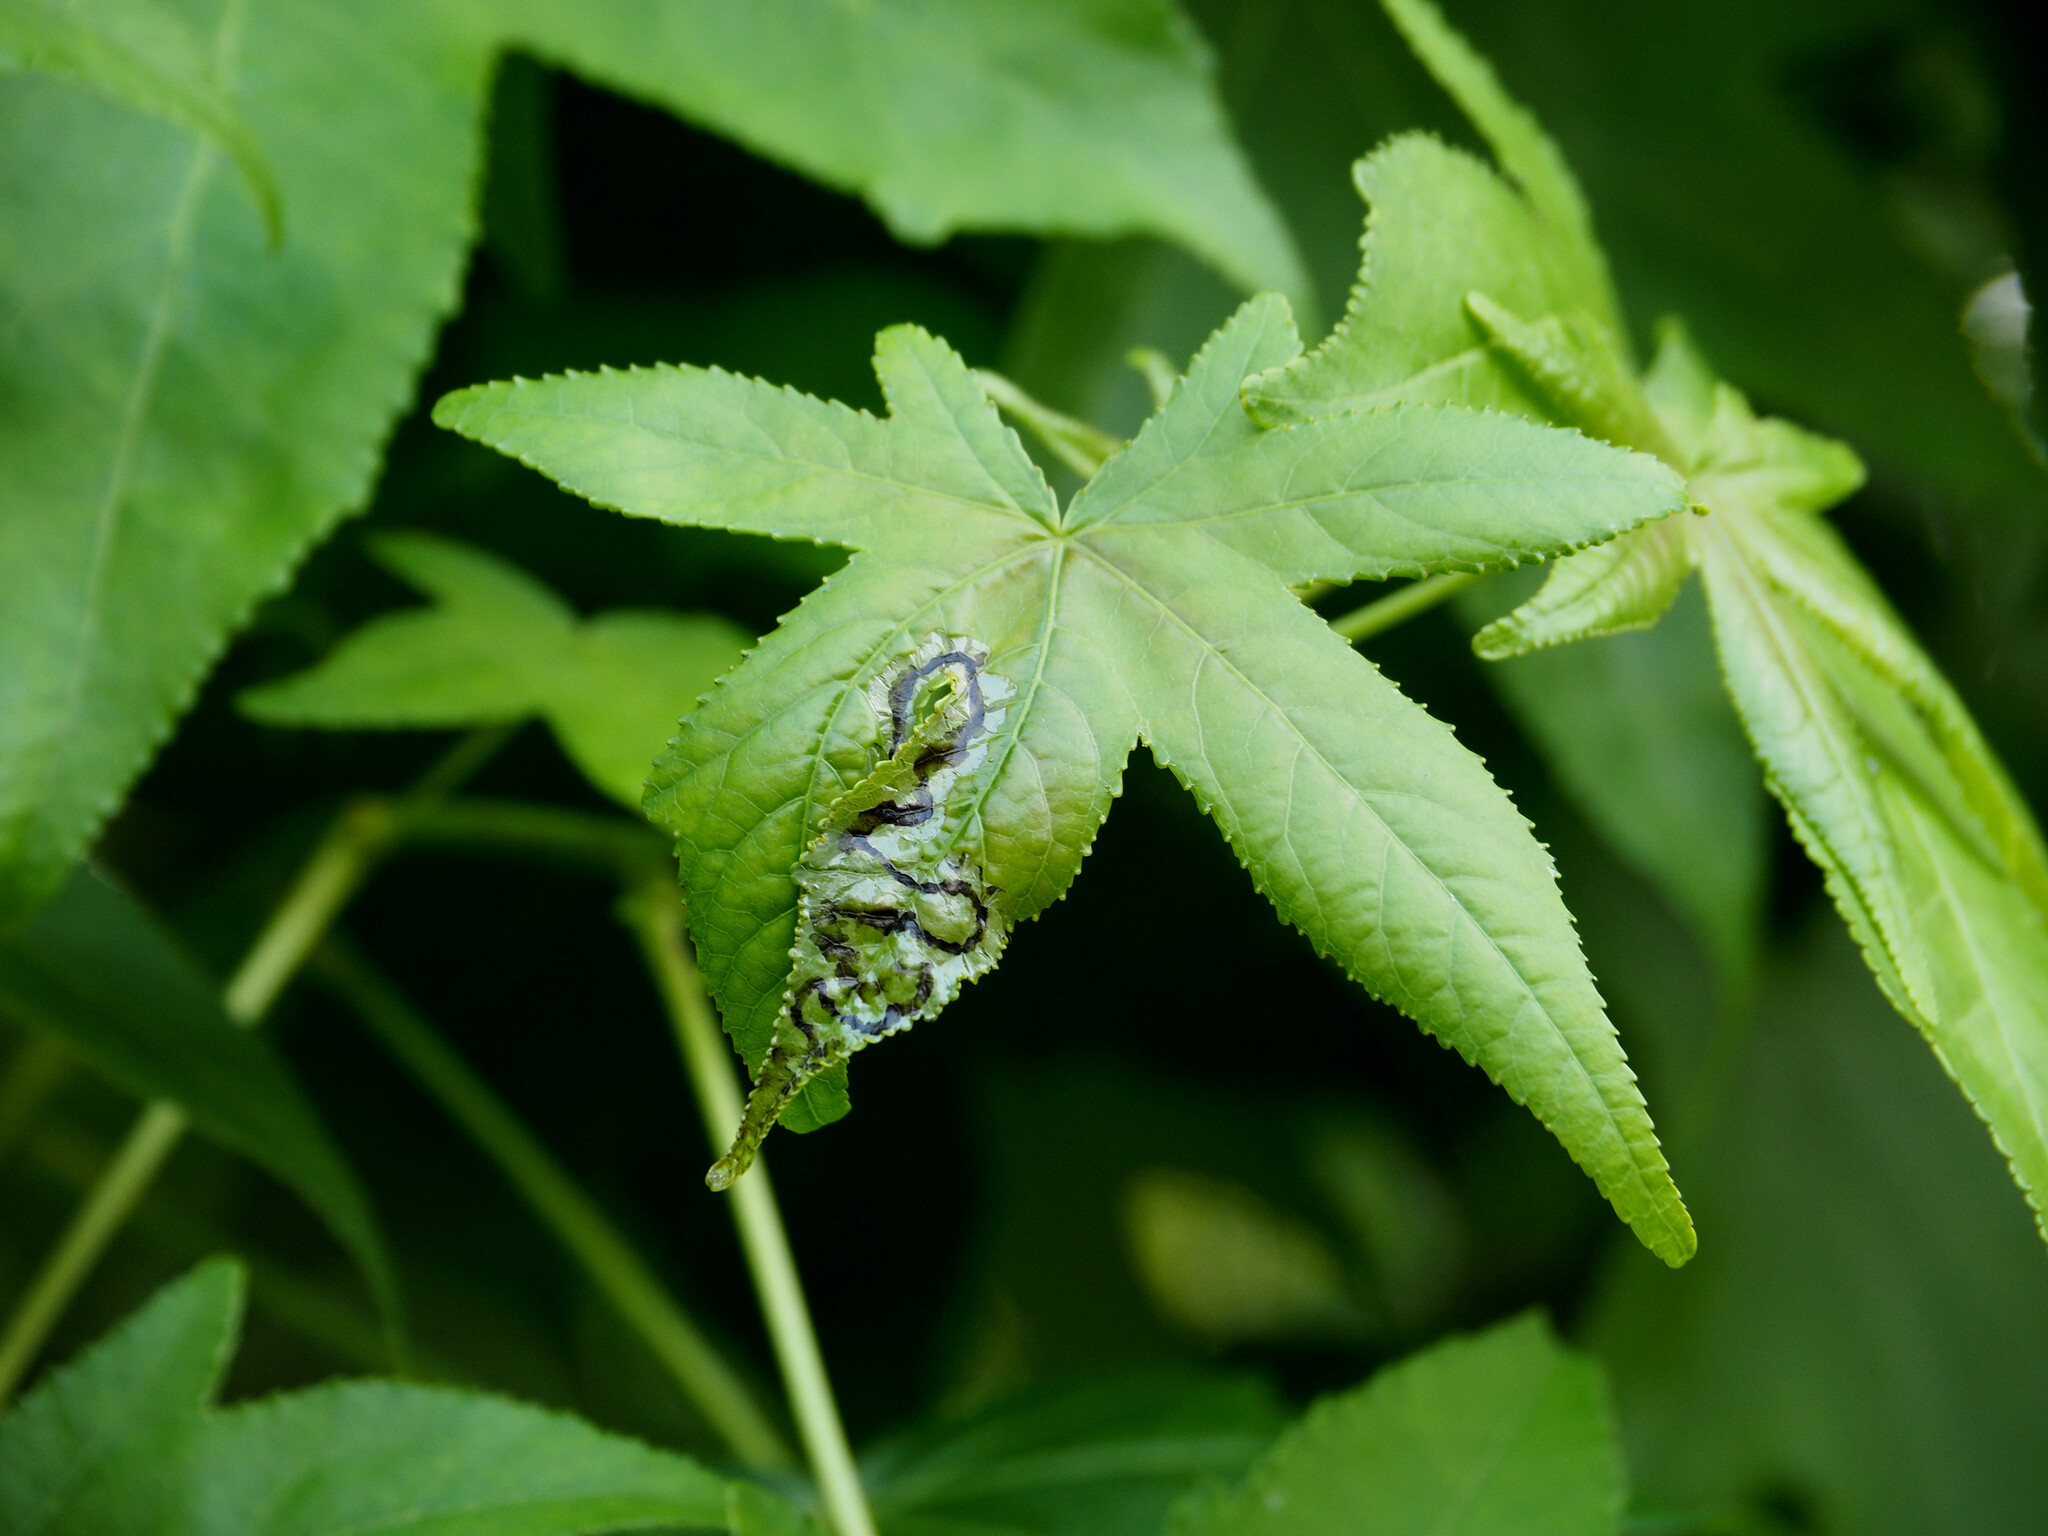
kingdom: Animalia
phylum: Arthropoda
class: Insecta
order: Lepidoptera
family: Gracillariidae
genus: Phyllocnistis
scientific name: Phyllocnistis liquidambarisella
